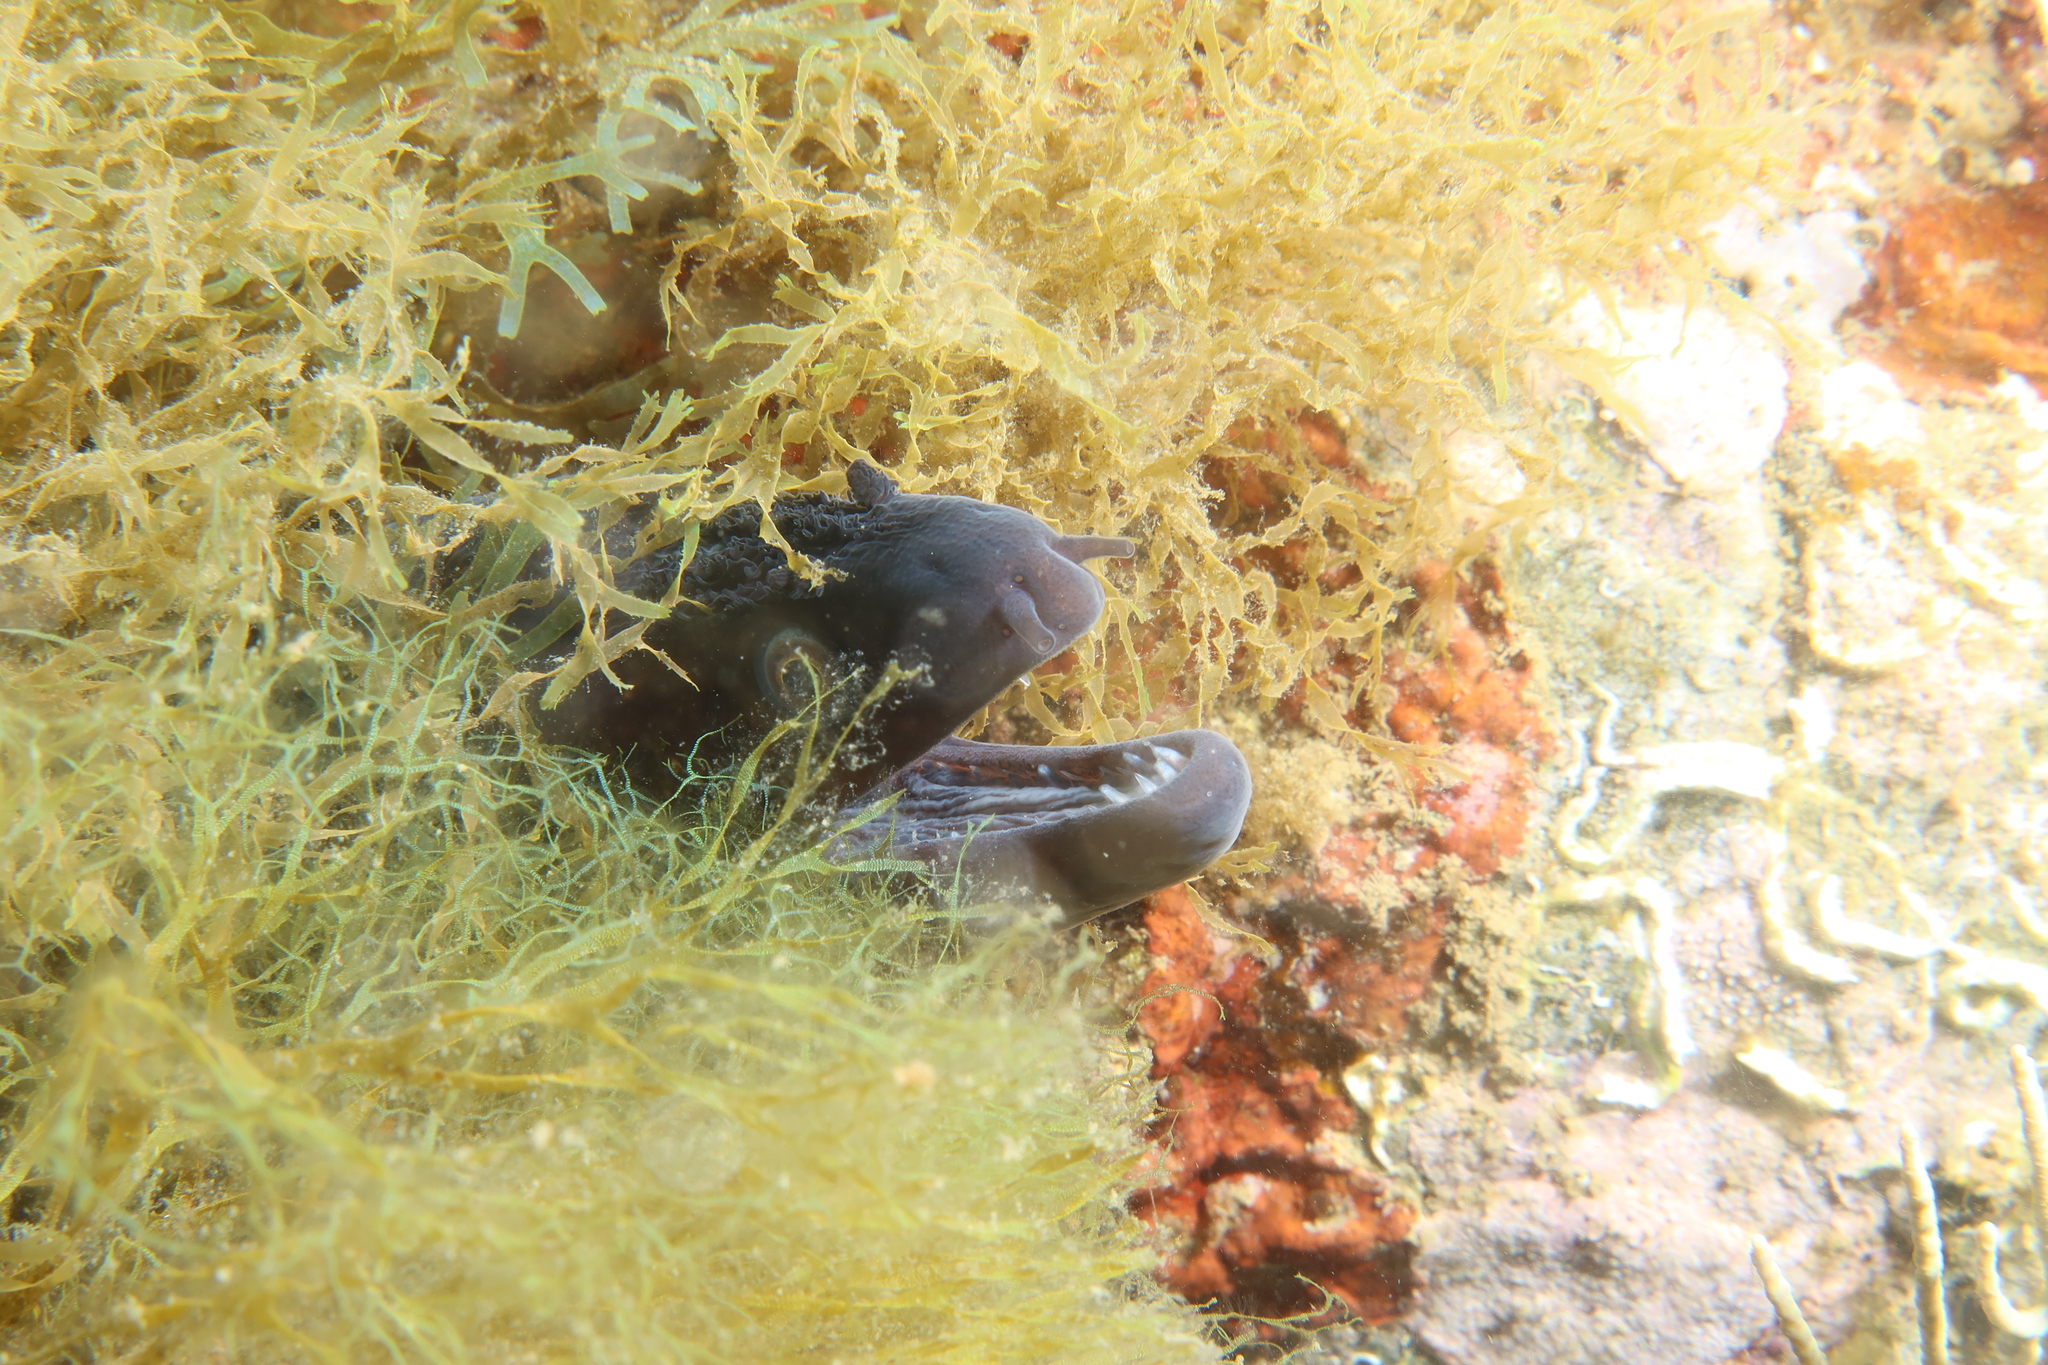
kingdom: Animalia
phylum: Chordata
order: Anguilliformes
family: Muraenidae
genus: Muraena
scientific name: Muraena helena
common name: Mediterranean moray
